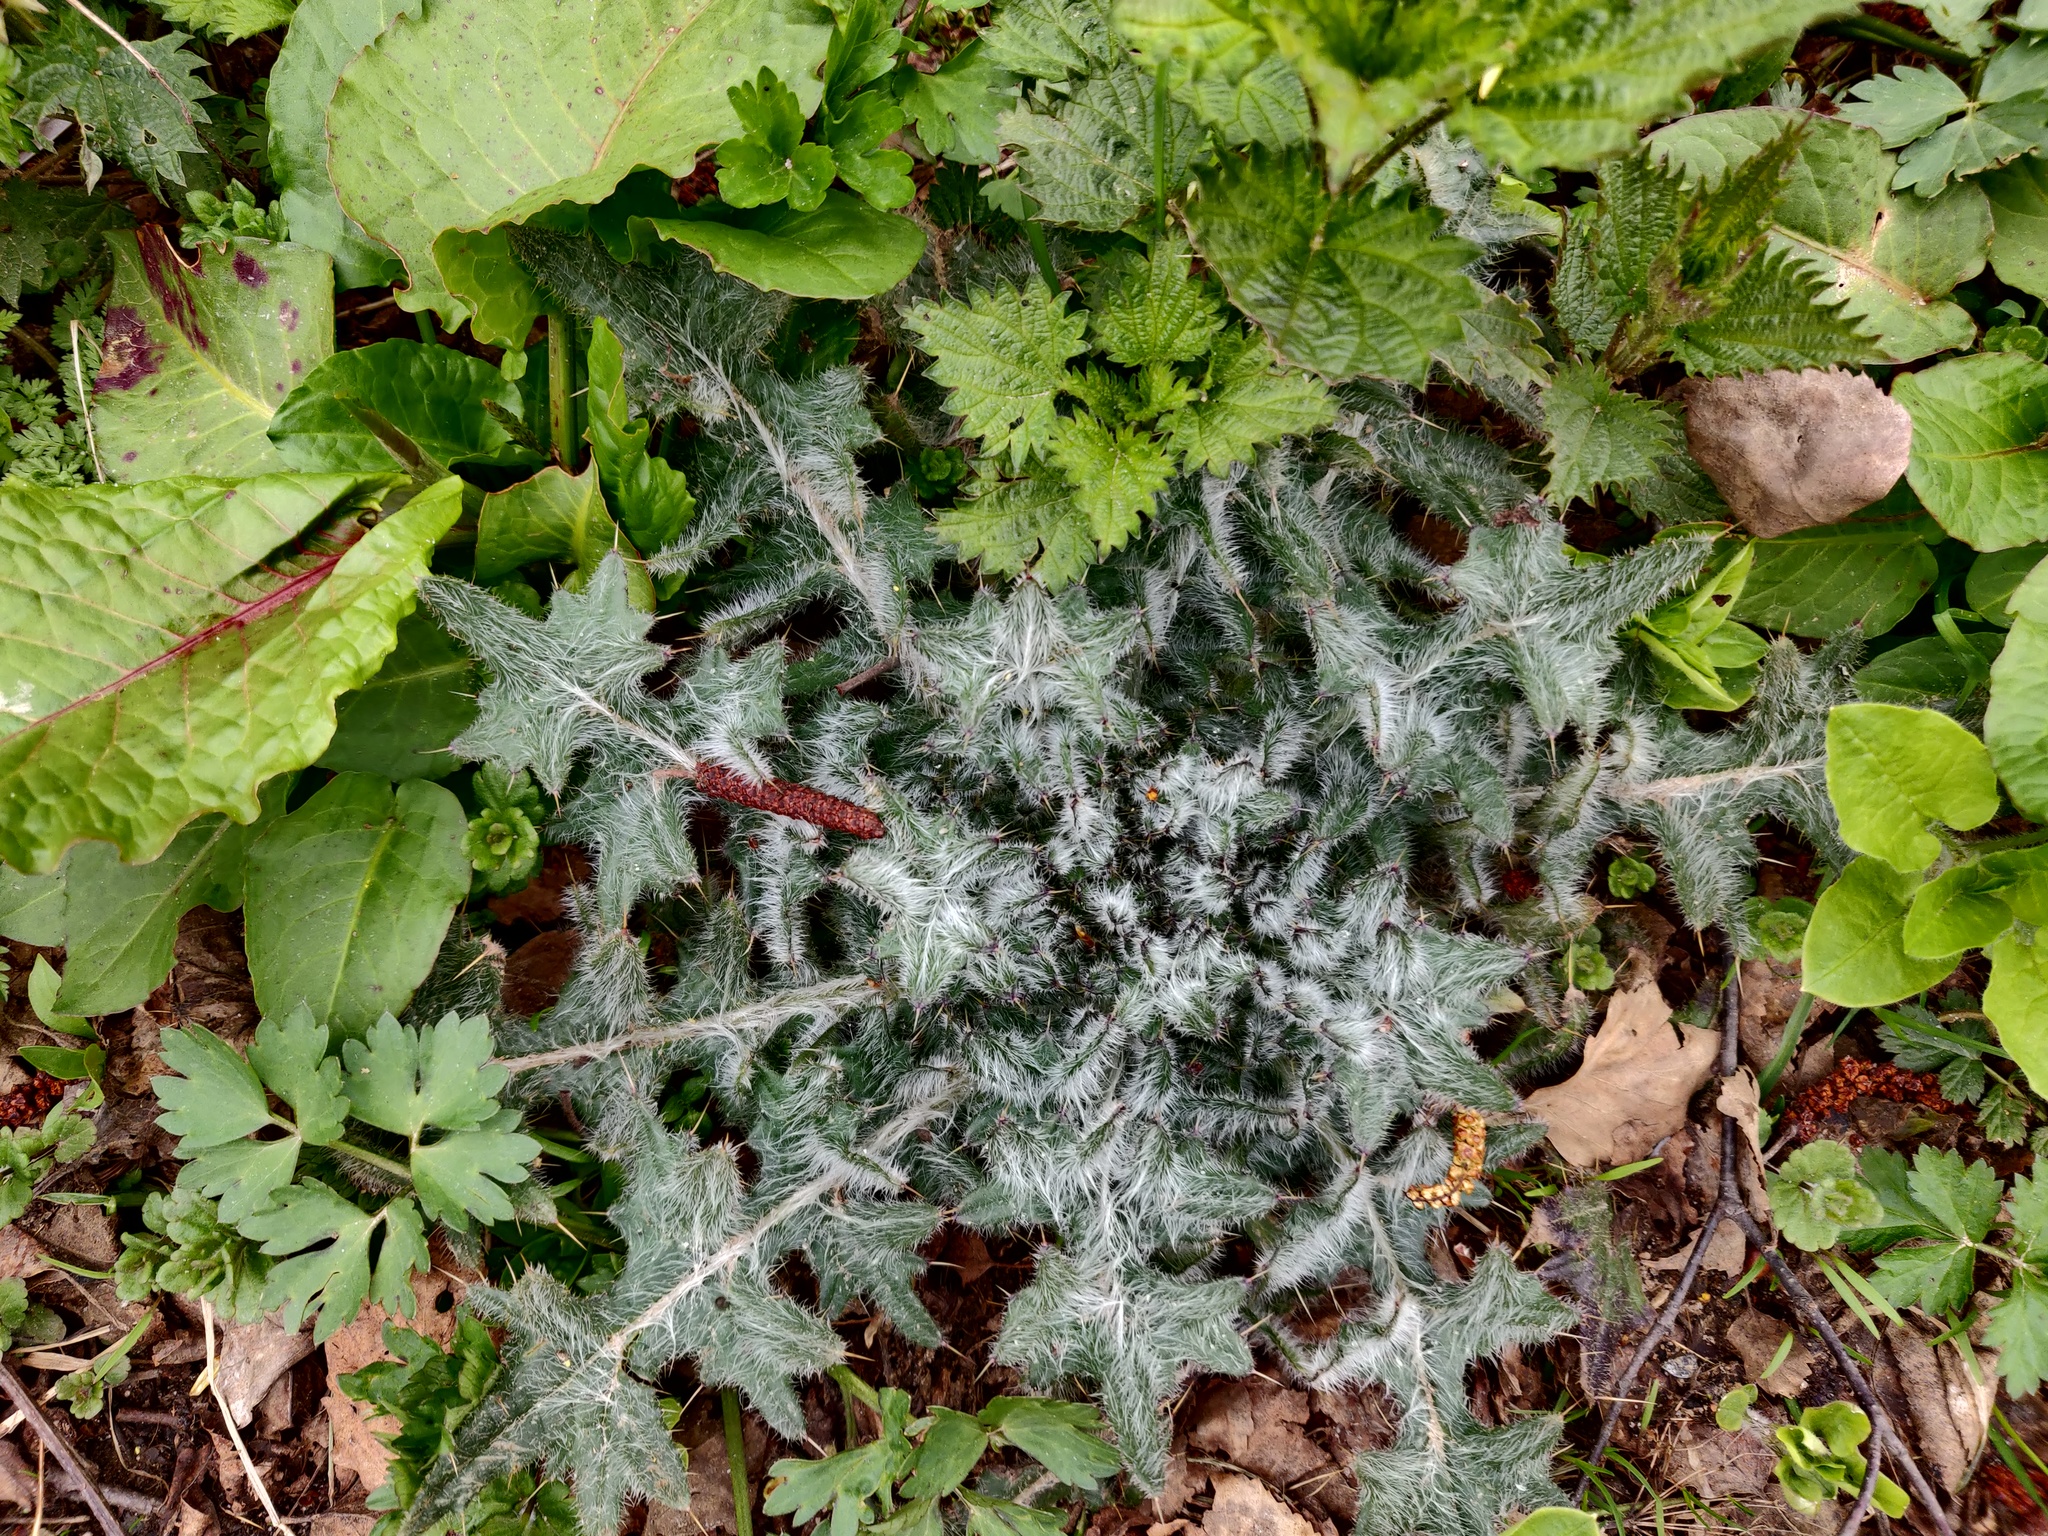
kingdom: Plantae
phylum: Tracheophyta
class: Magnoliopsida
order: Asterales
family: Asteraceae
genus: Cirsium
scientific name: Cirsium vulgare
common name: Bull thistle
